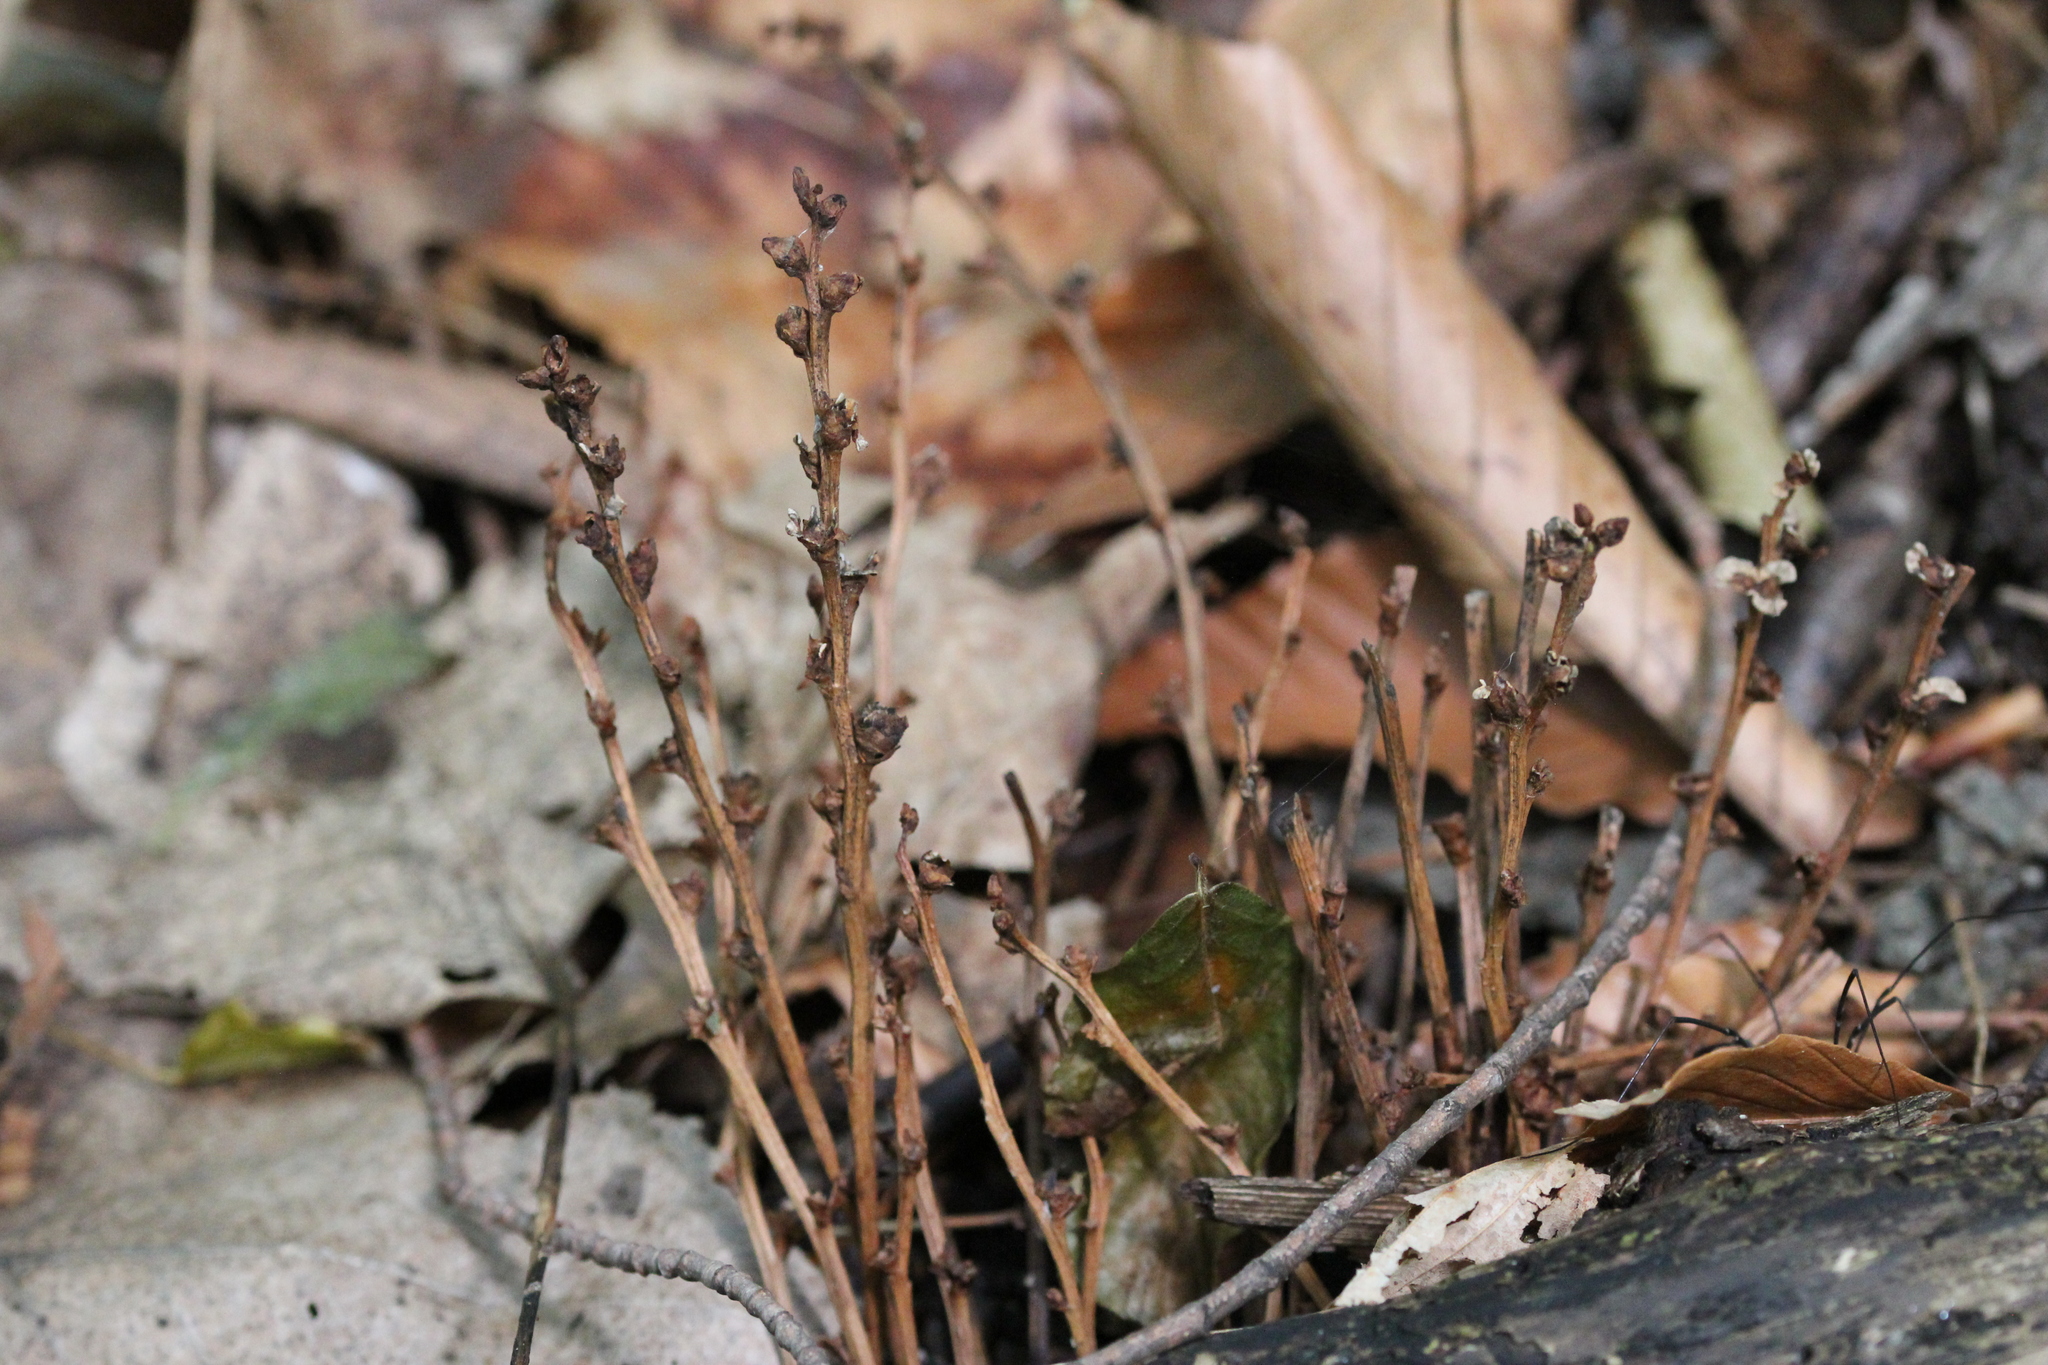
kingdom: Plantae
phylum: Tracheophyta
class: Magnoliopsida
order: Lamiales
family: Orobanchaceae
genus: Epifagus
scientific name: Epifagus virginiana
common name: Beechdrops
